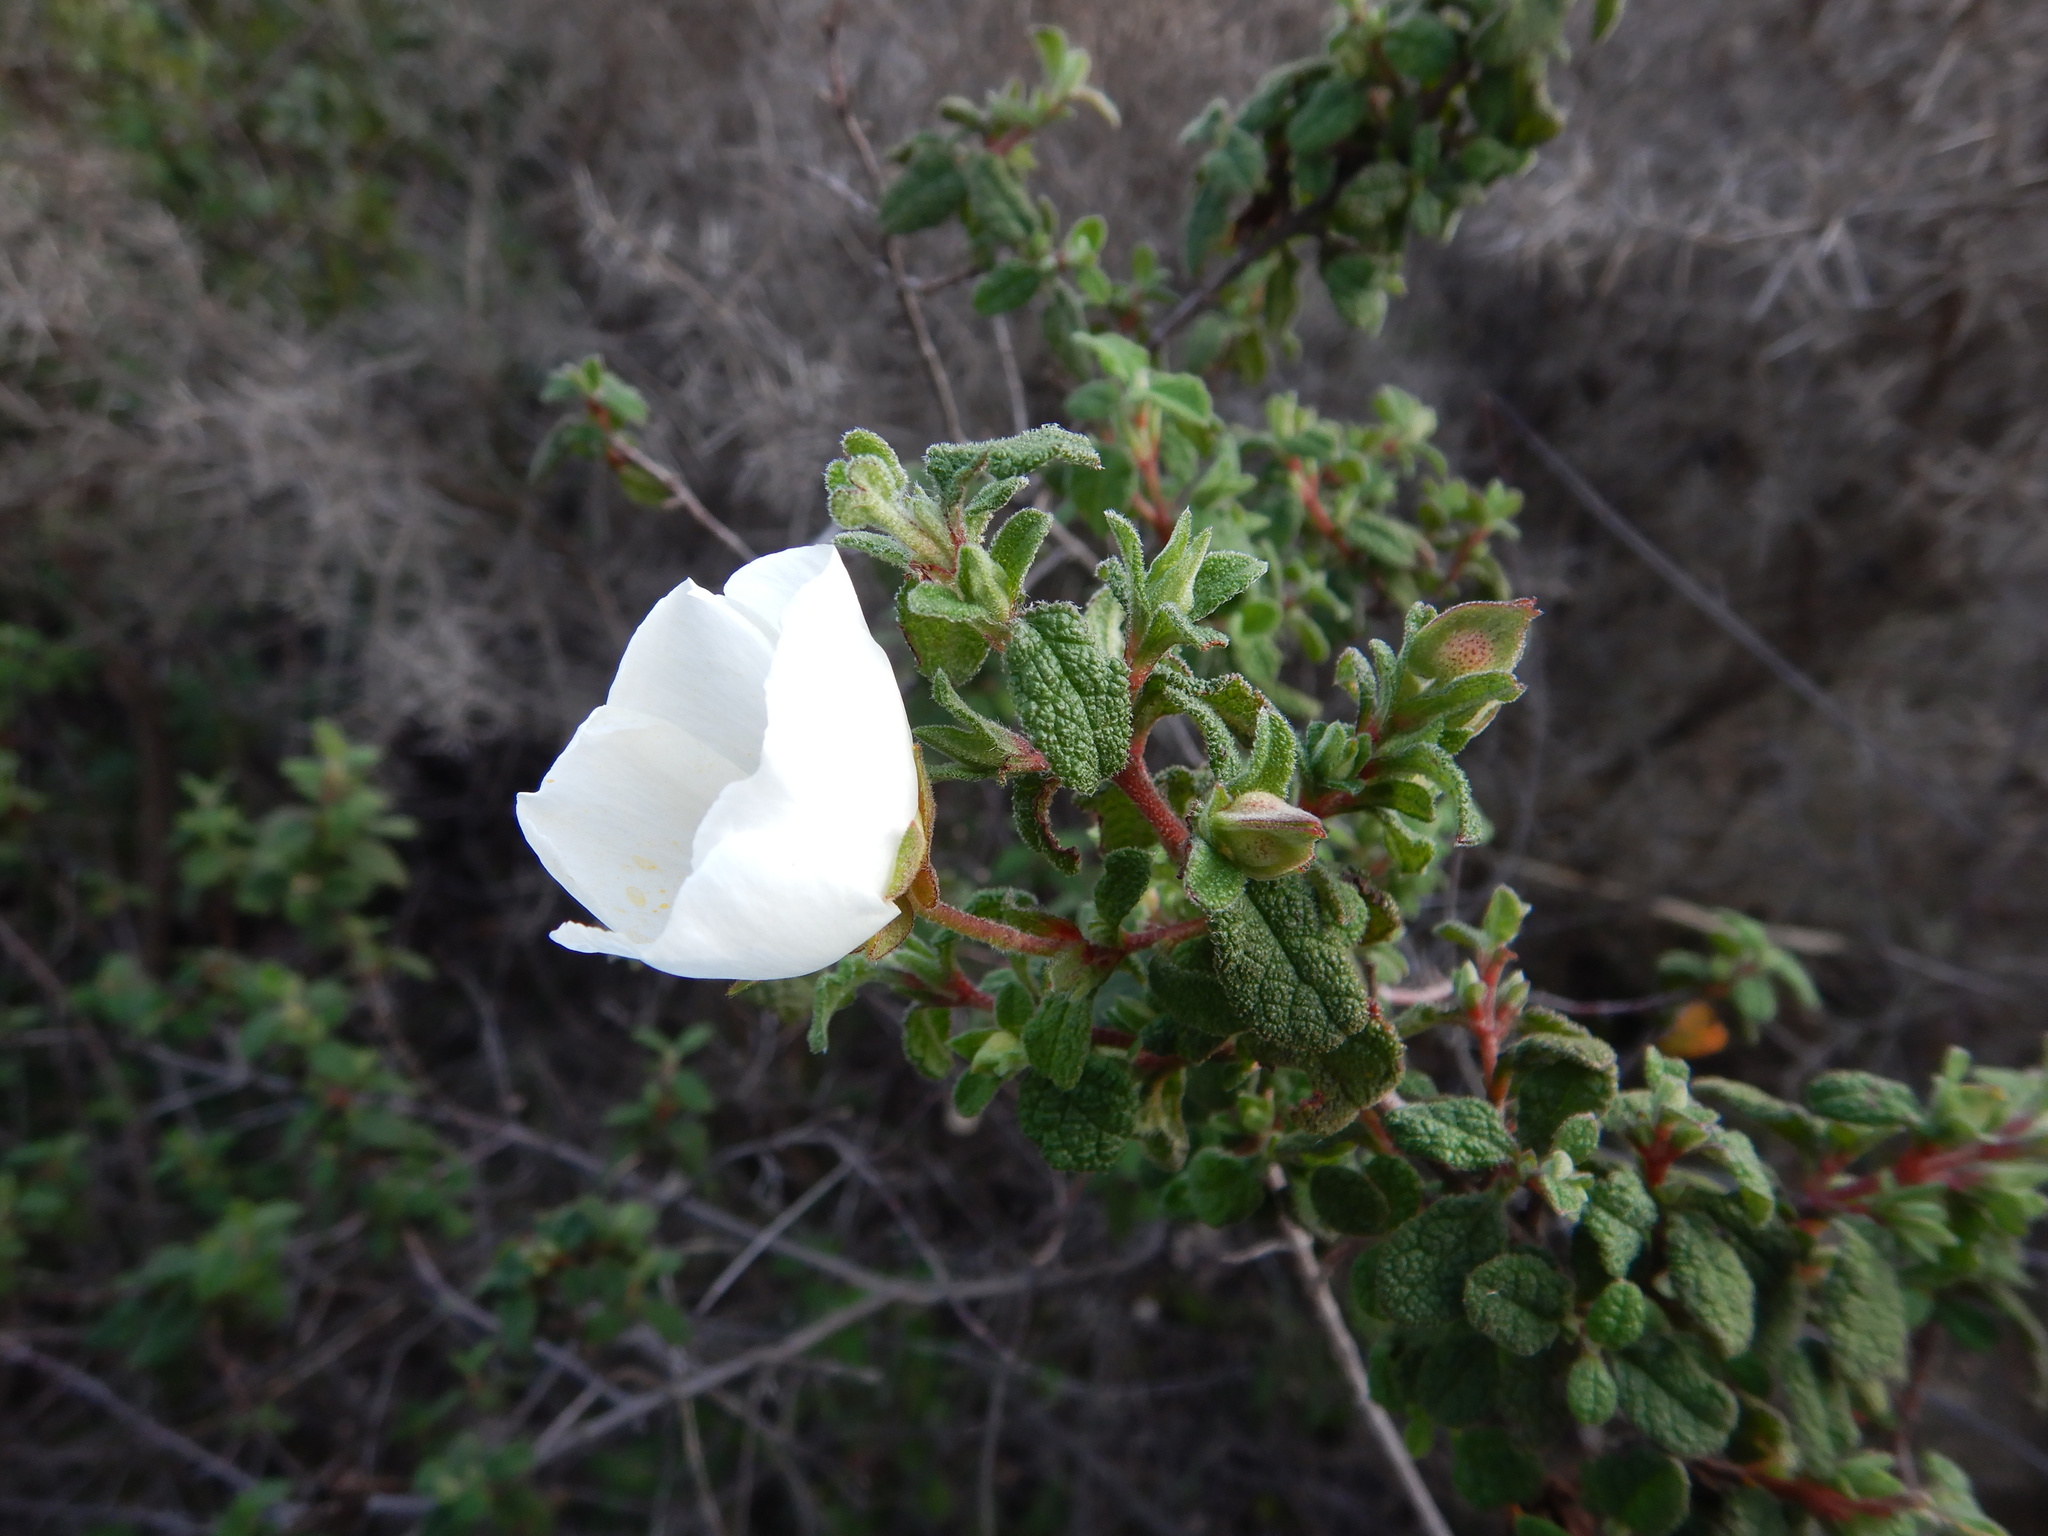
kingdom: Plantae
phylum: Tracheophyta
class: Magnoliopsida
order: Malvales
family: Cistaceae
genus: Cistus
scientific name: Cistus salviifolius
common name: Salvia cistus
